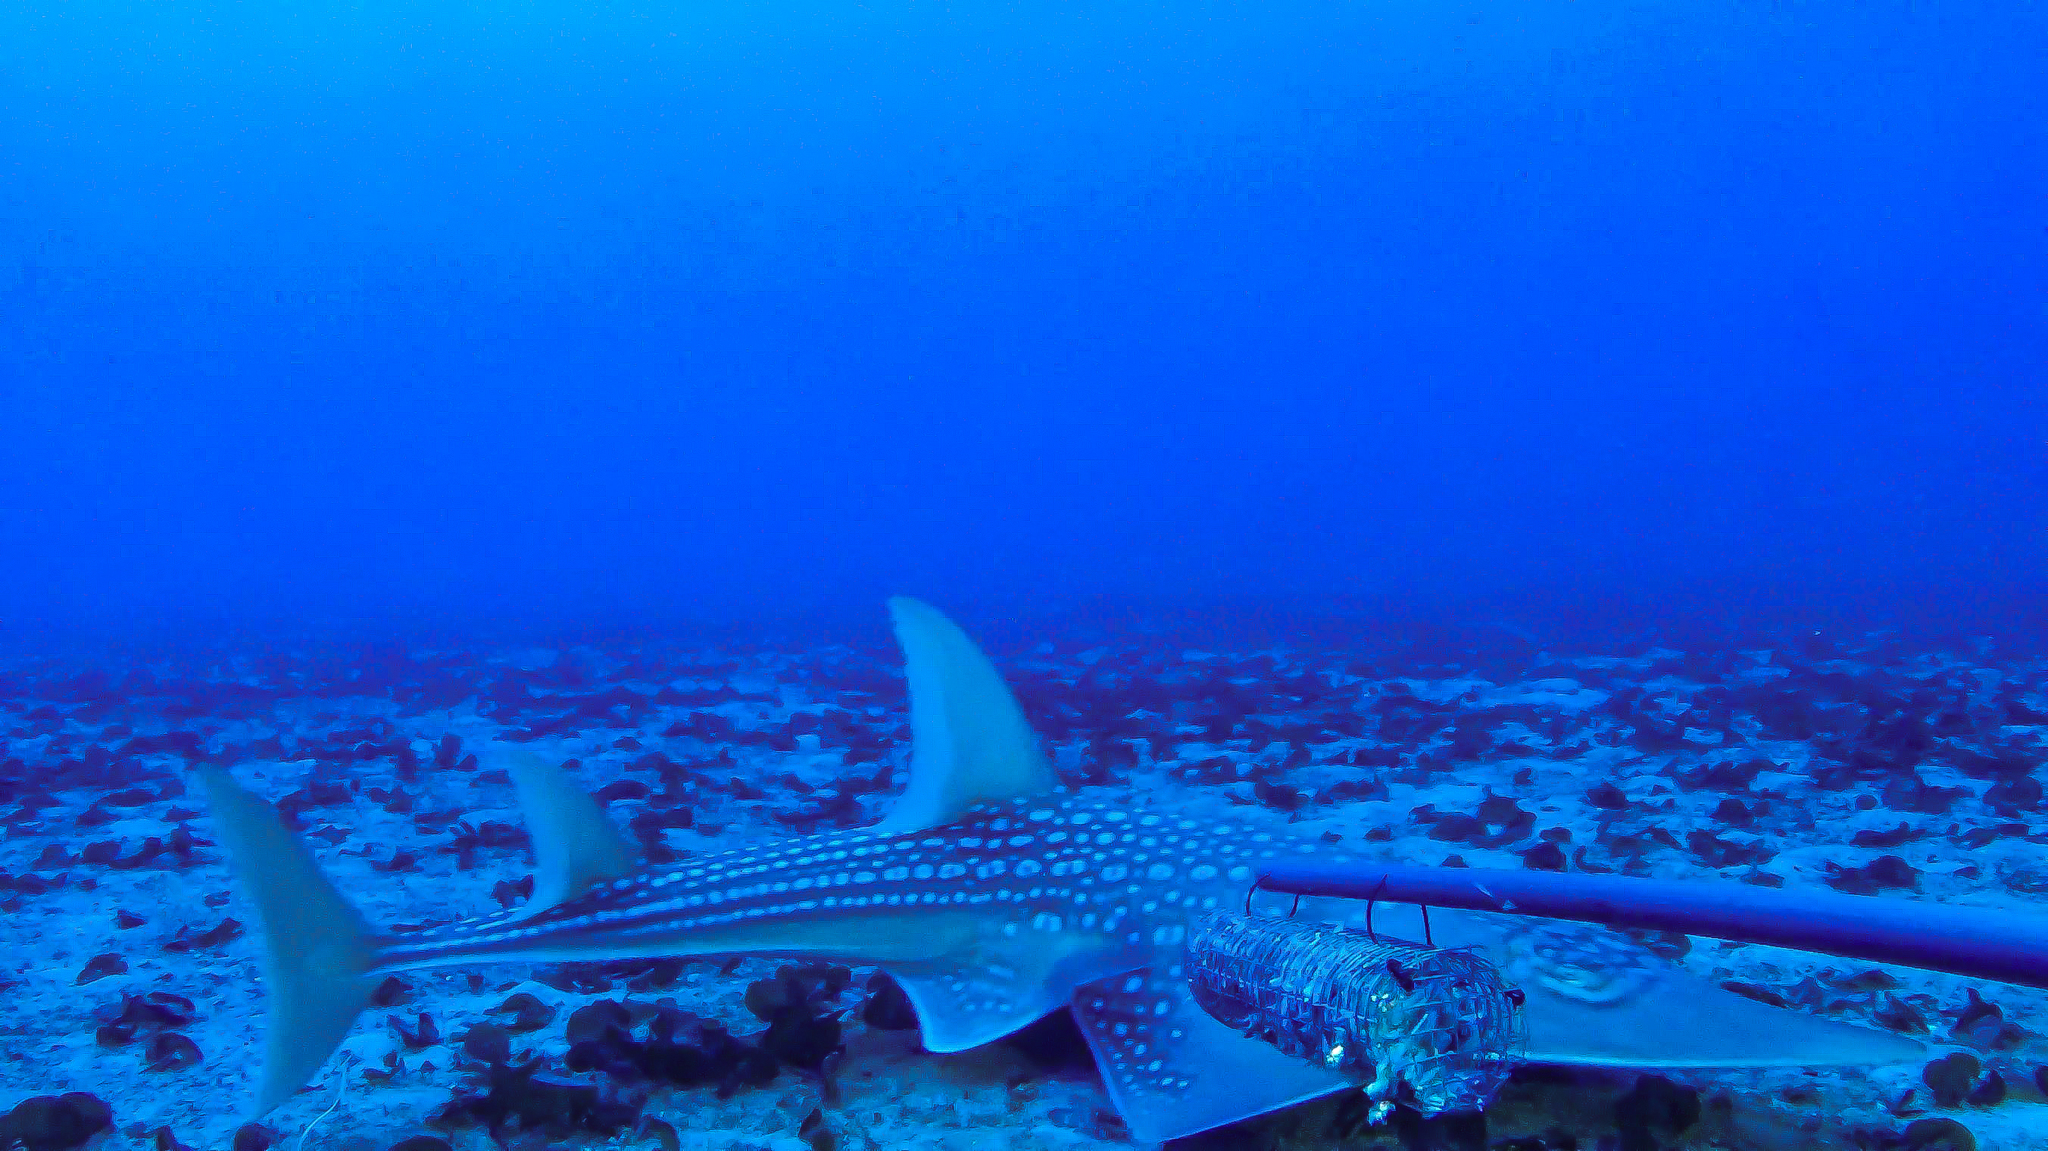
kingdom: Animalia
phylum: Chordata
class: Elasmobranchii
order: Rhinopristiformes
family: Rhinidae
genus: Rhynchobatus
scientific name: Rhynchobatus djiddensis
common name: Giant guitarfish
